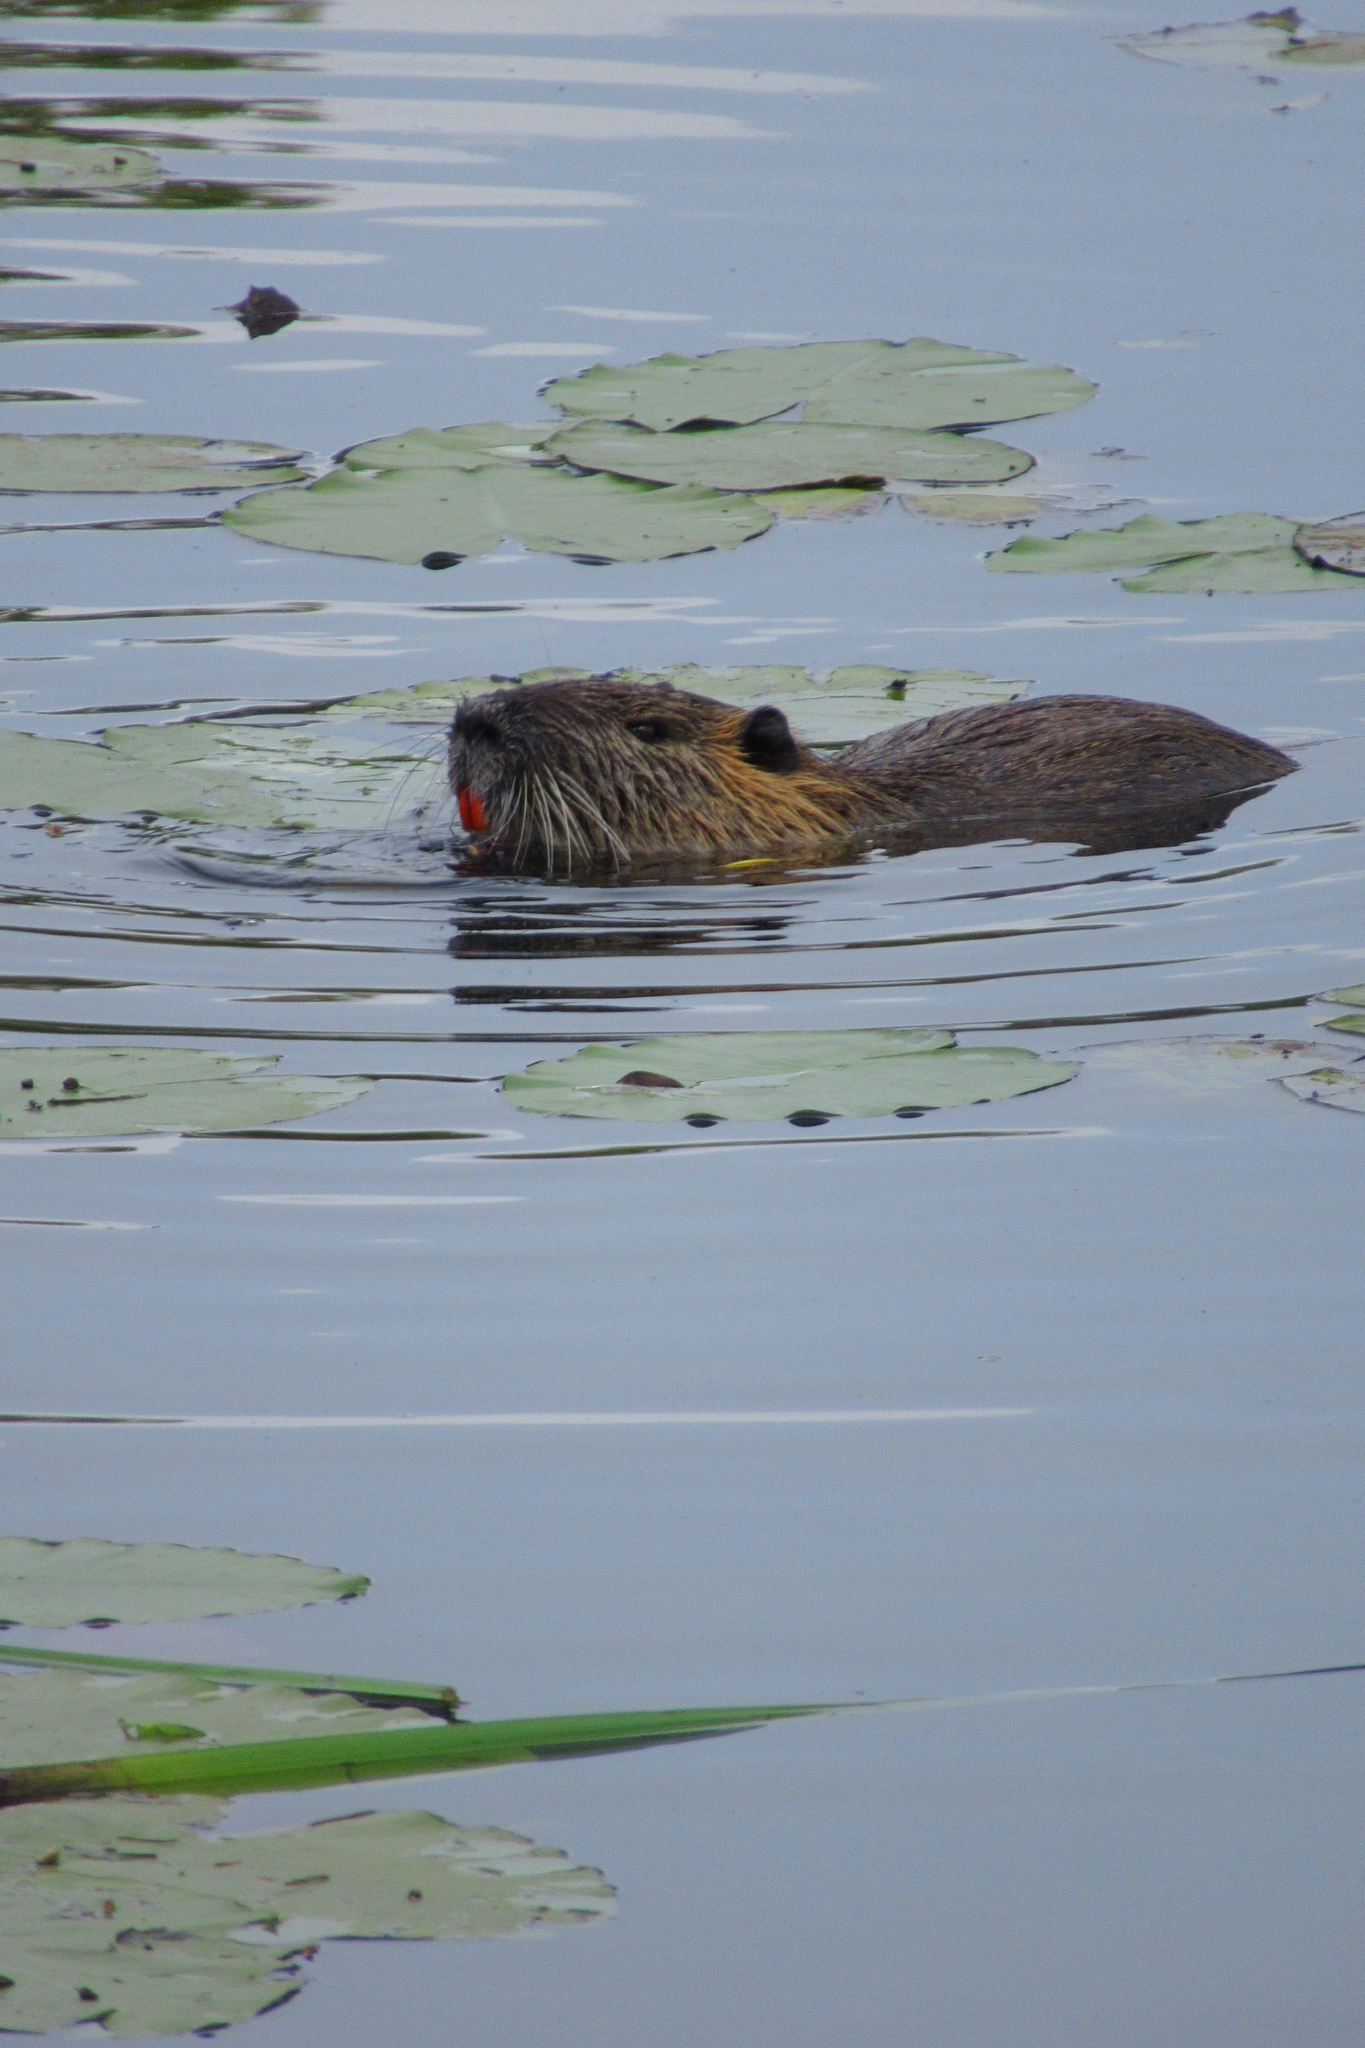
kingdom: Animalia
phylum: Chordata
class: Mammalia
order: Rodentia
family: Myocastoridae
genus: Myocastor
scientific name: Myocastor coypus
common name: Coypu
